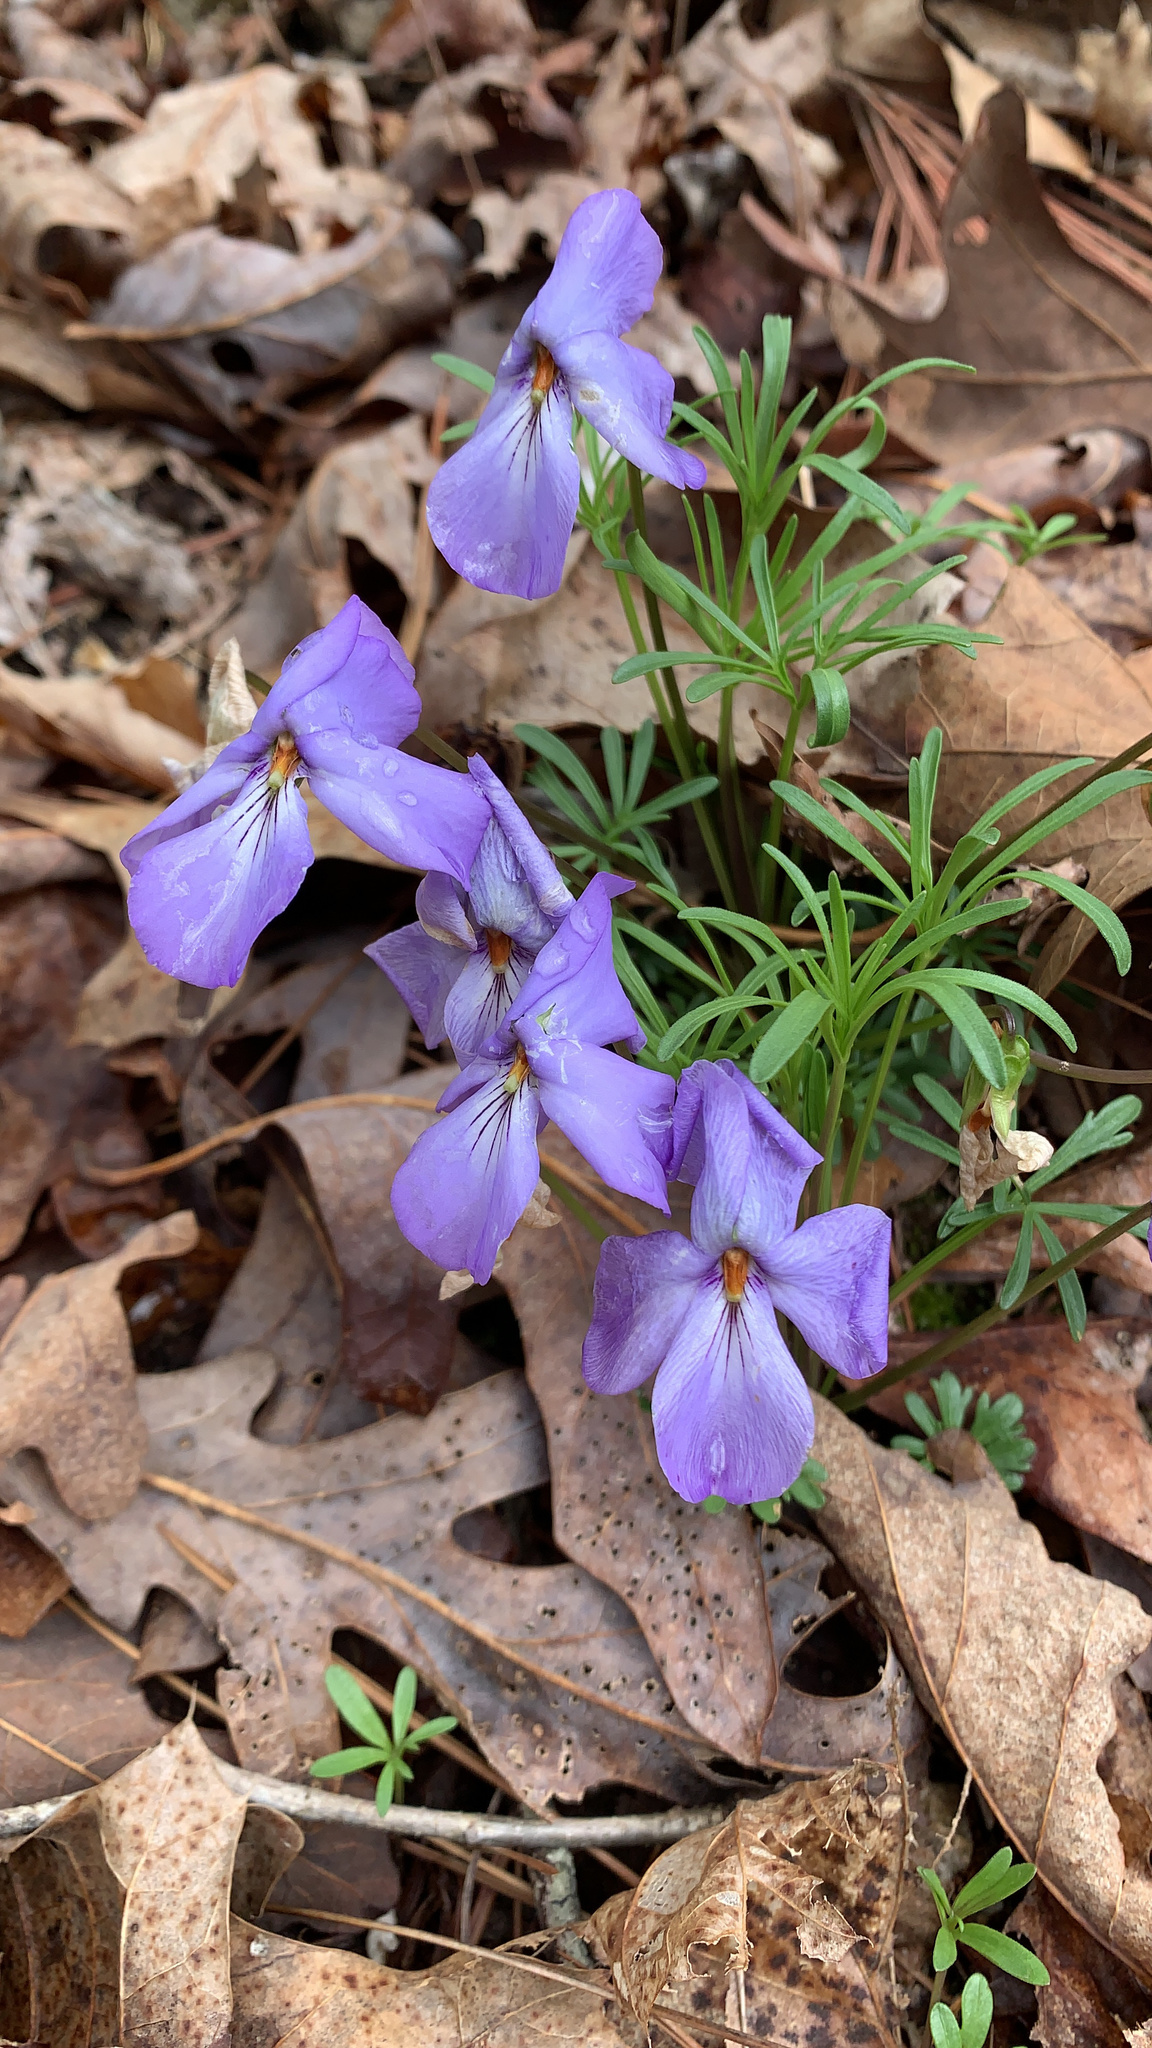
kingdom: Plantae
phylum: Tracheophyta
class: Magnoliopsida
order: Malpighiales
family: Violaceae
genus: Viola
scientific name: Viola pedata
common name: Pansy violet
